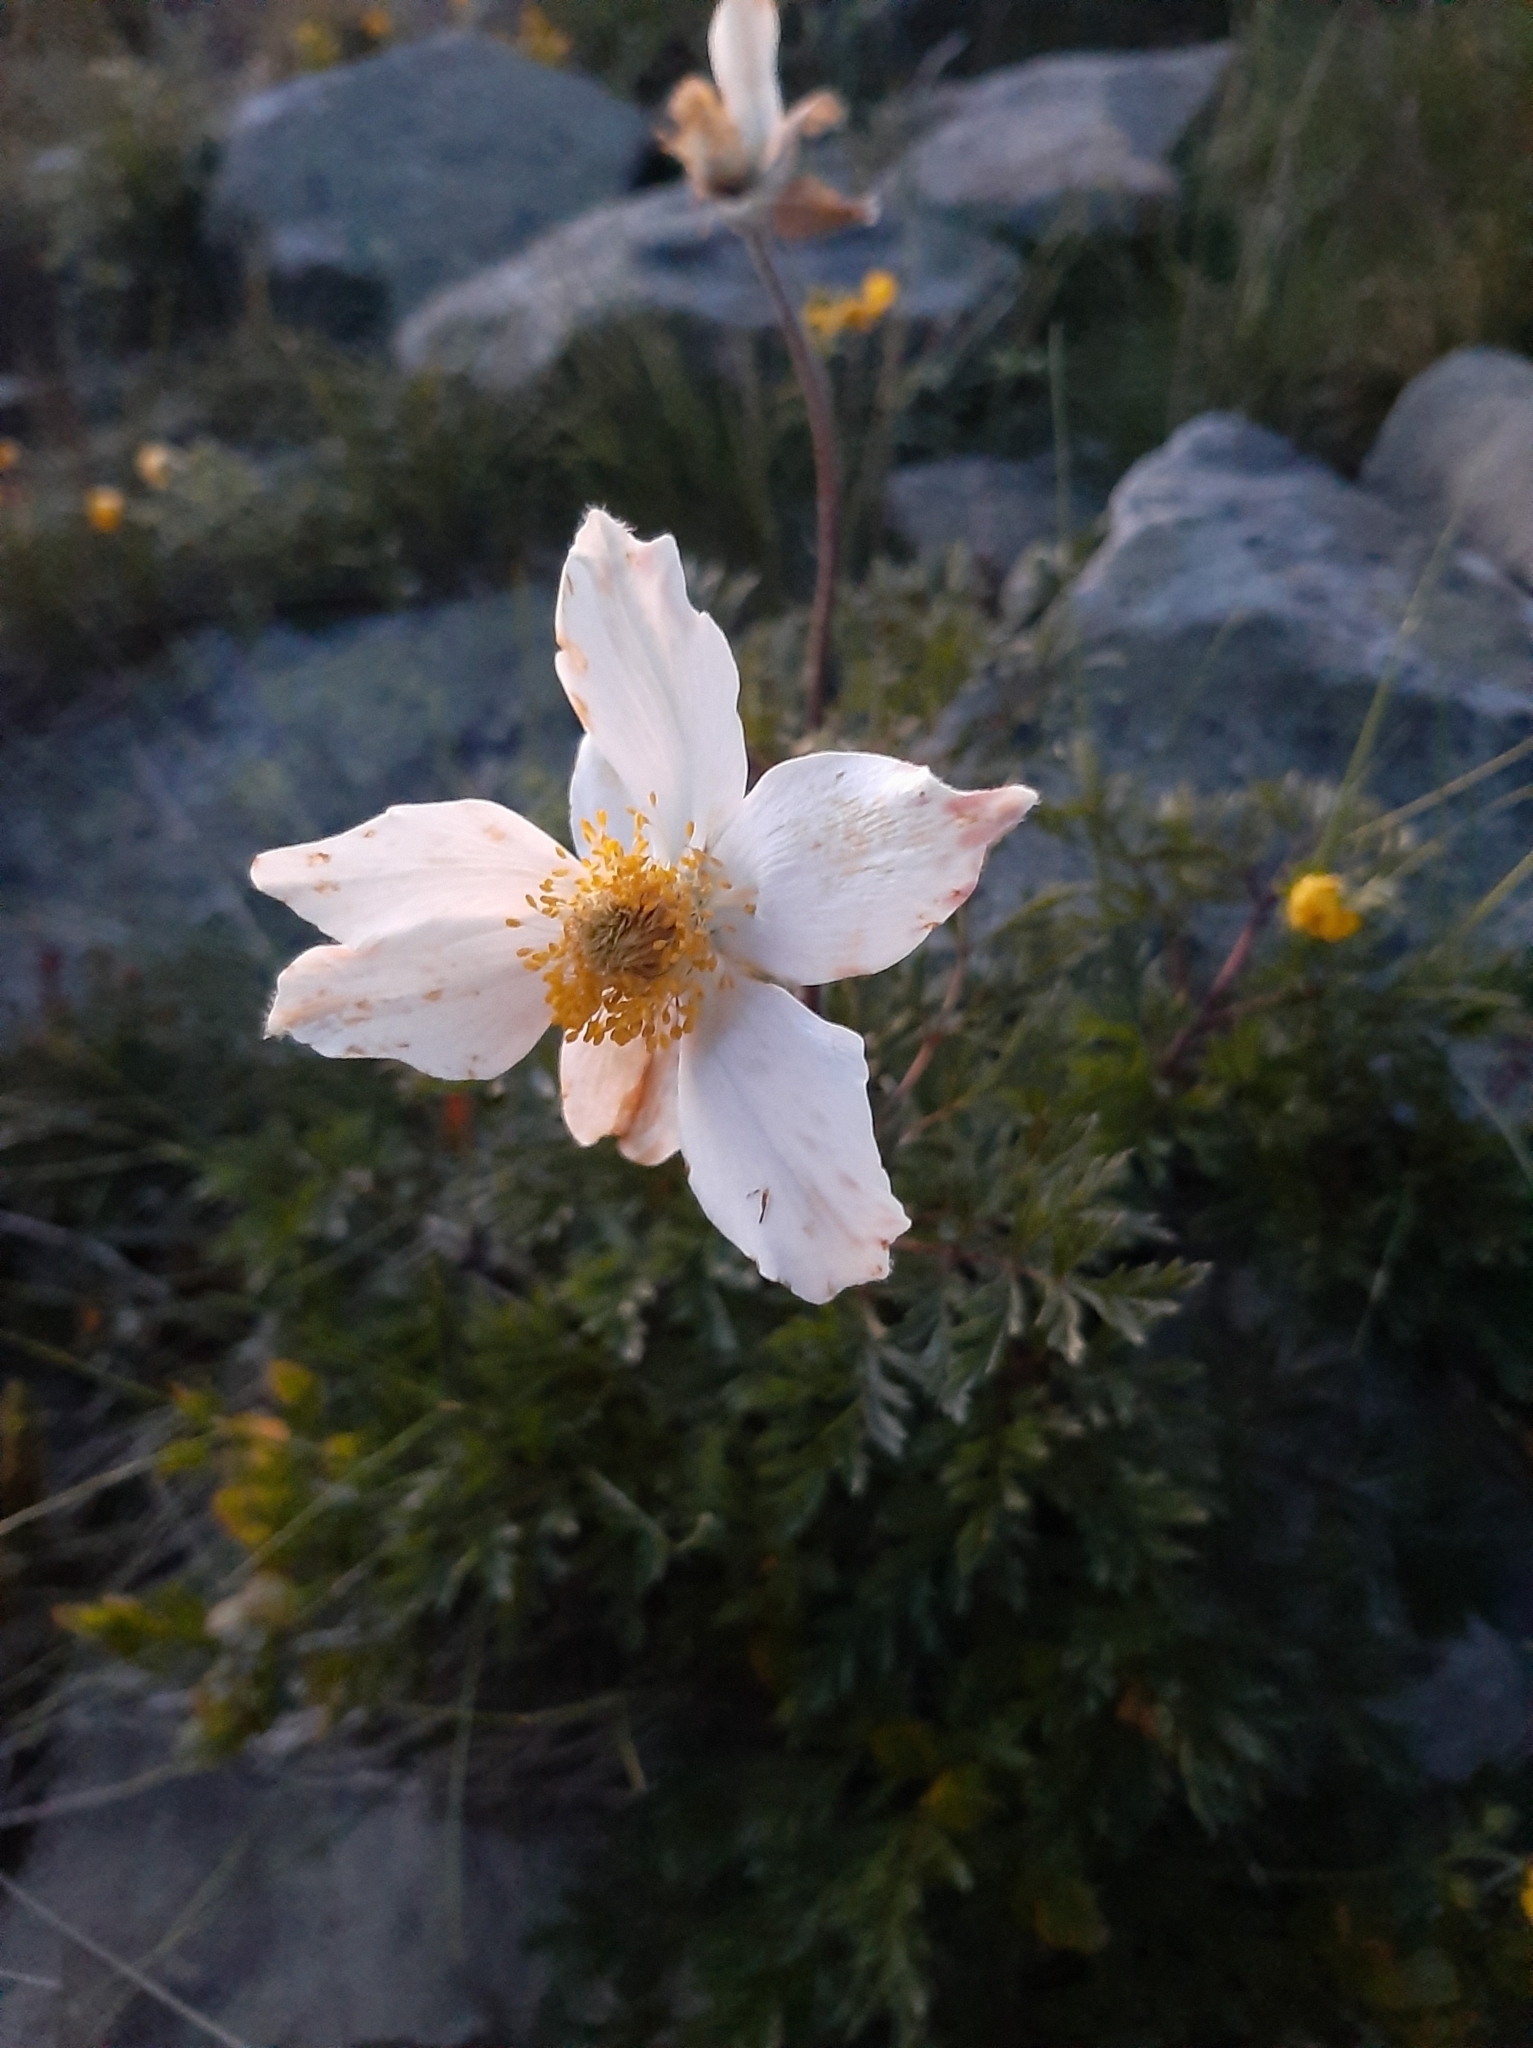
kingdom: Plantae
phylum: Tracheophyta
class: Magnoliopsida
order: Ranunculales
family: Ranunculaceae
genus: Pulsatilla
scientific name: Pulsatilla alpina
